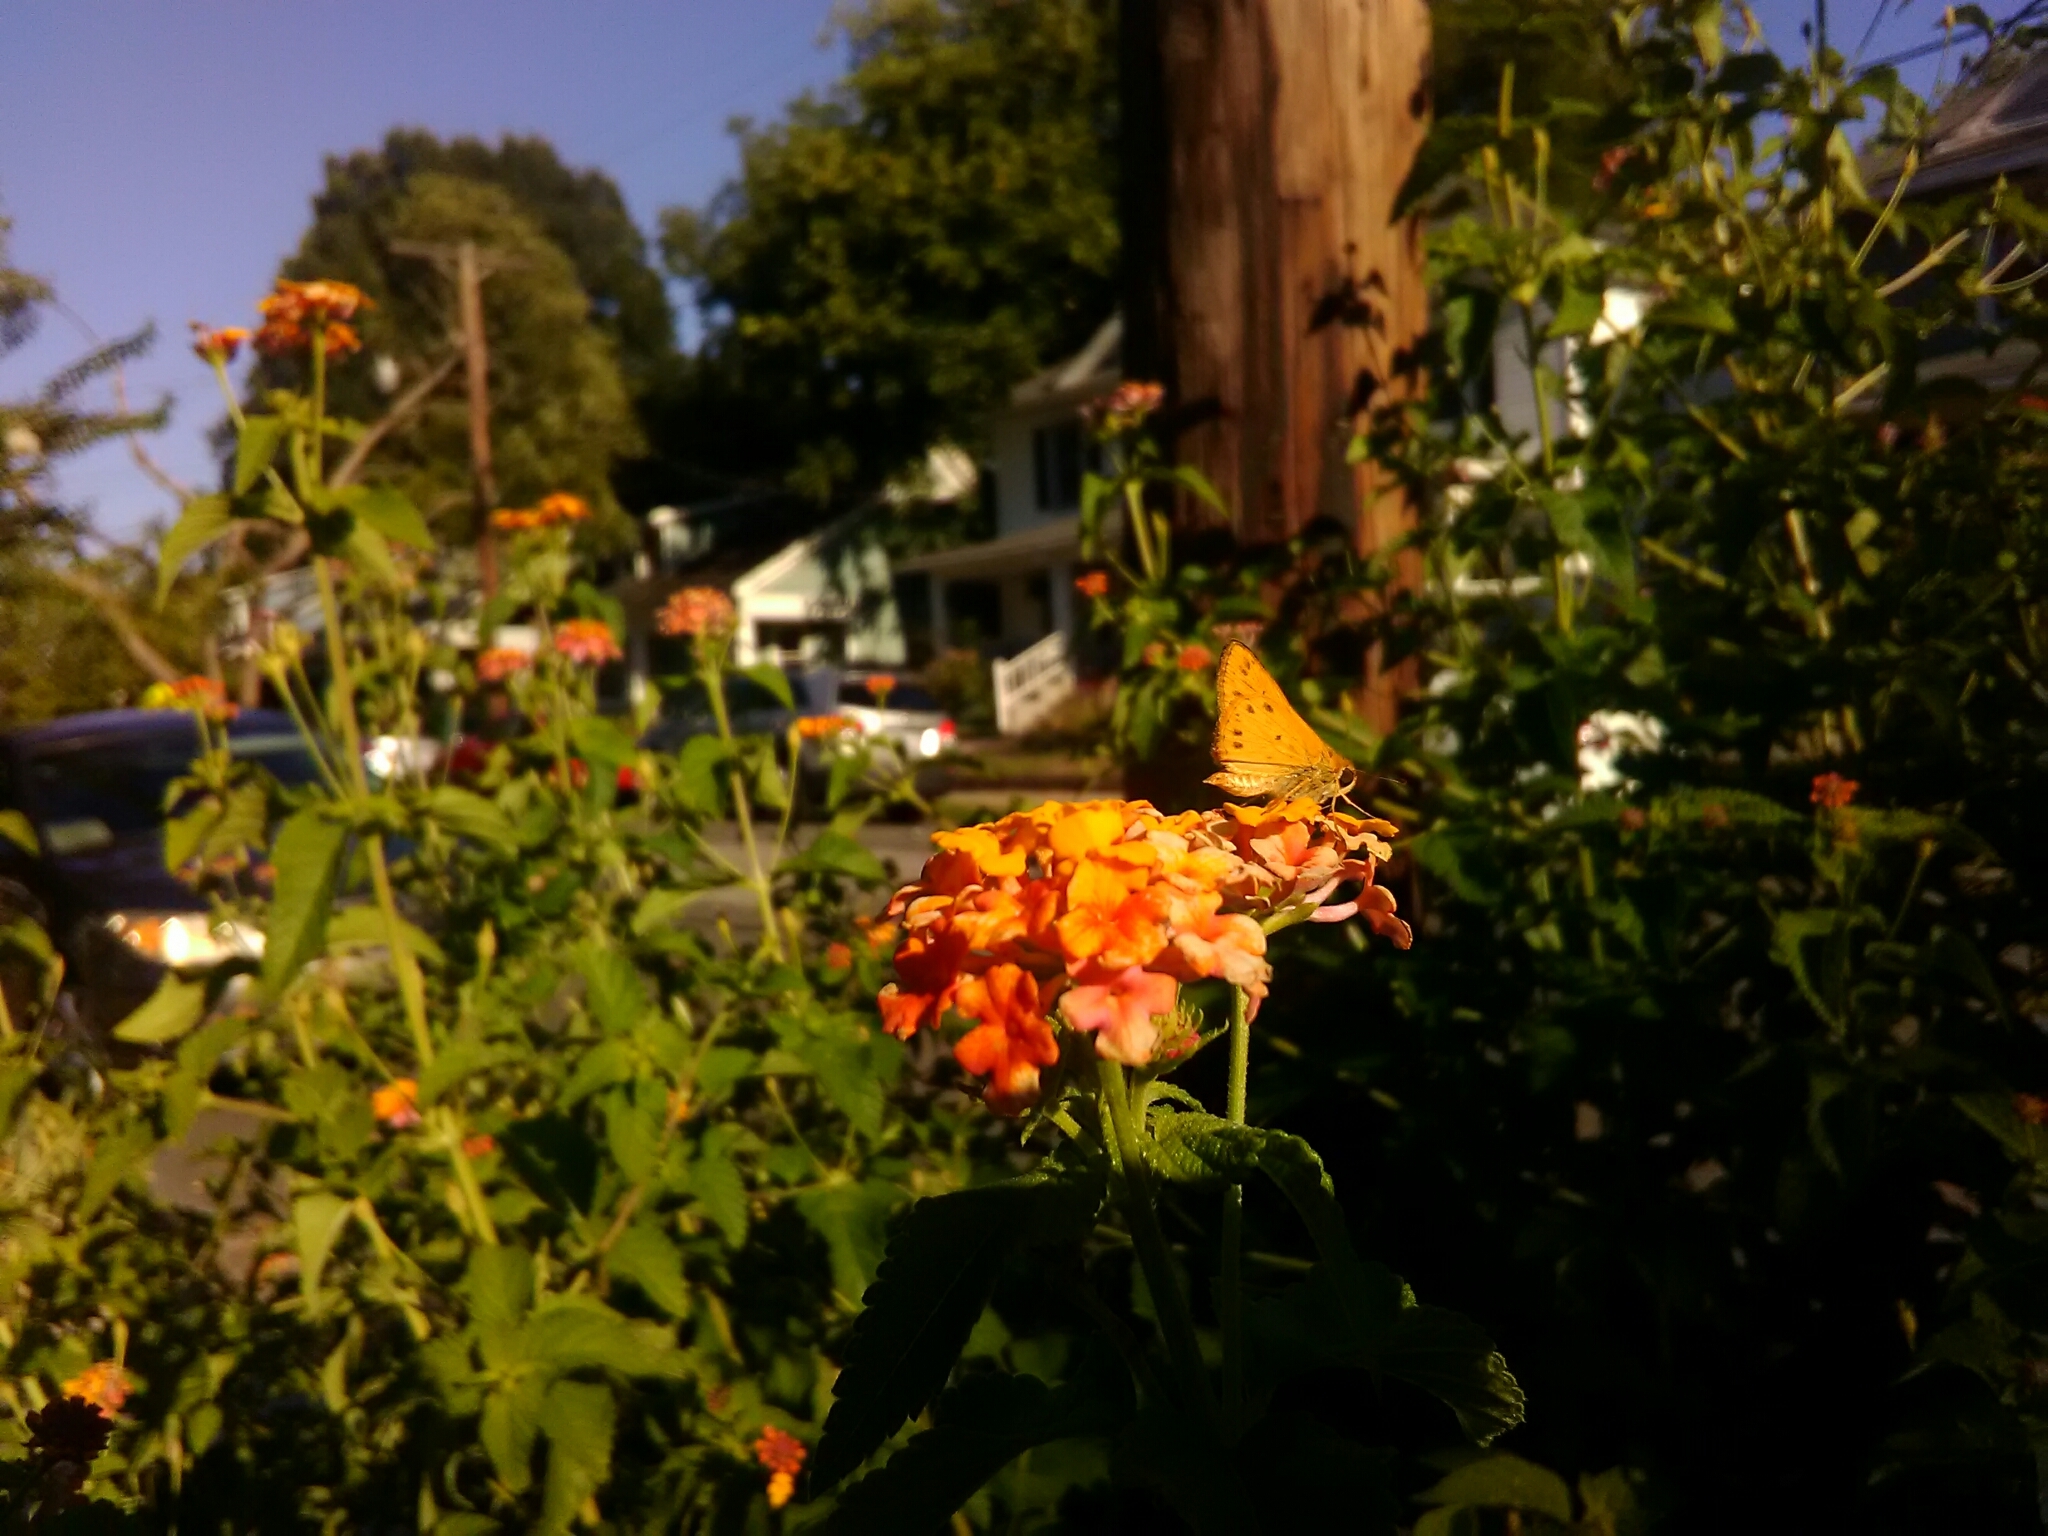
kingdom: Animalia
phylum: Arthropoda
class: Insecta
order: Lepidoptera
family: Hesperiidae
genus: Hylephila
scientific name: Hylephila phyleus
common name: Fiery skipper
